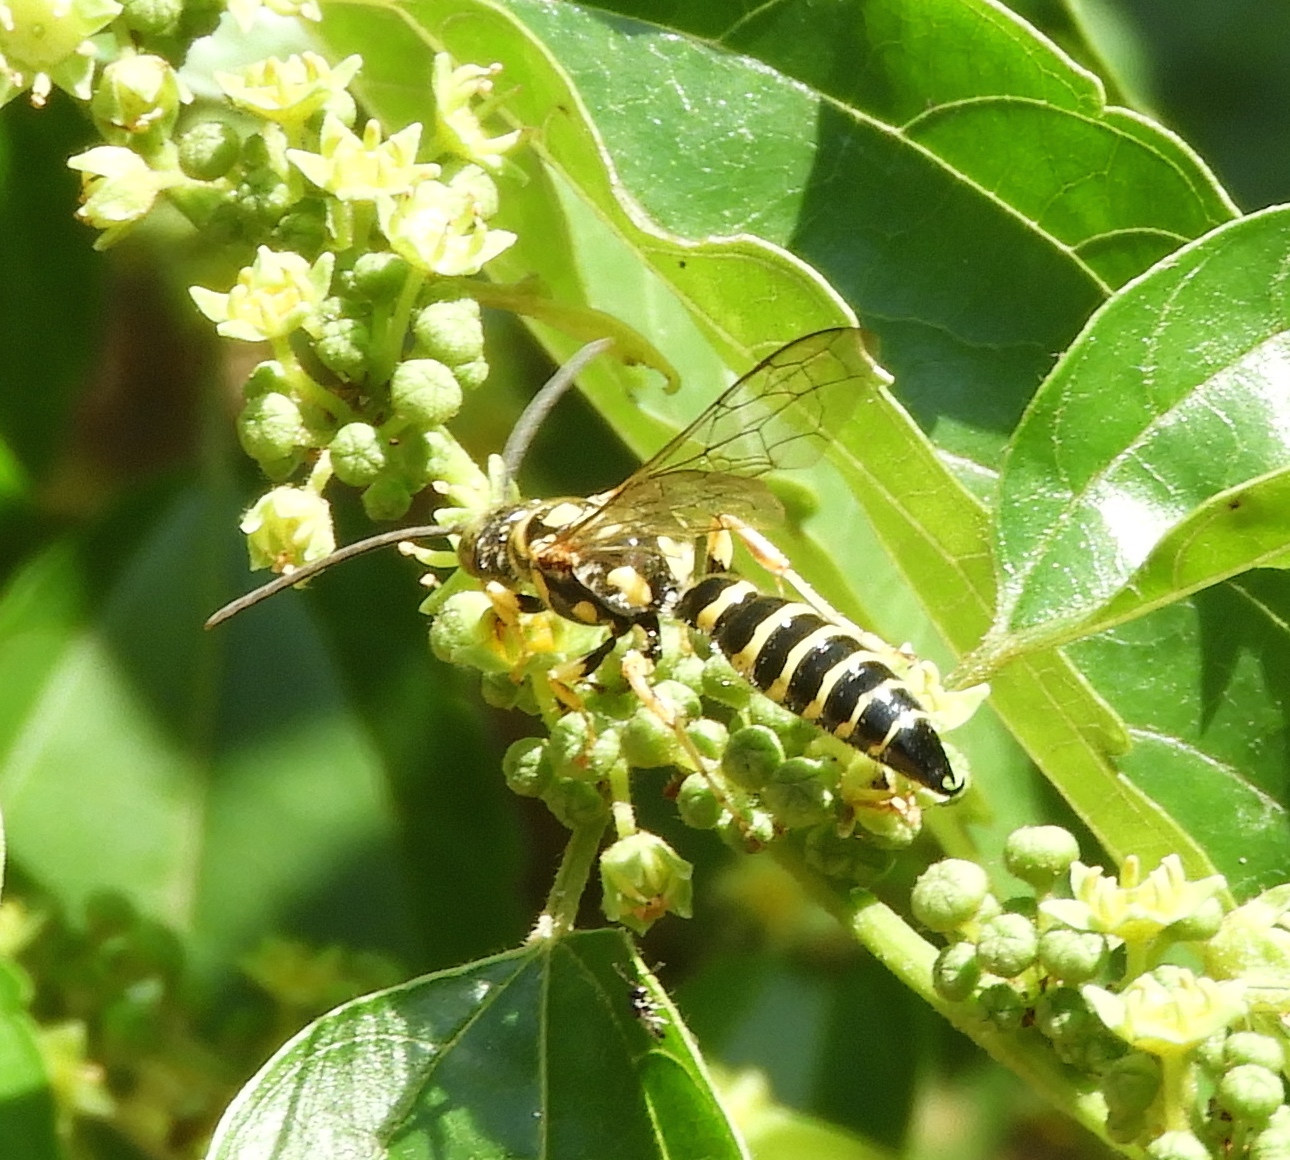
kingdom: Animalia
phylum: Arthropoda
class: Insecta
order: Hymenoptera
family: Tiphiidae
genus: Myzinum
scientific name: Myzinum
